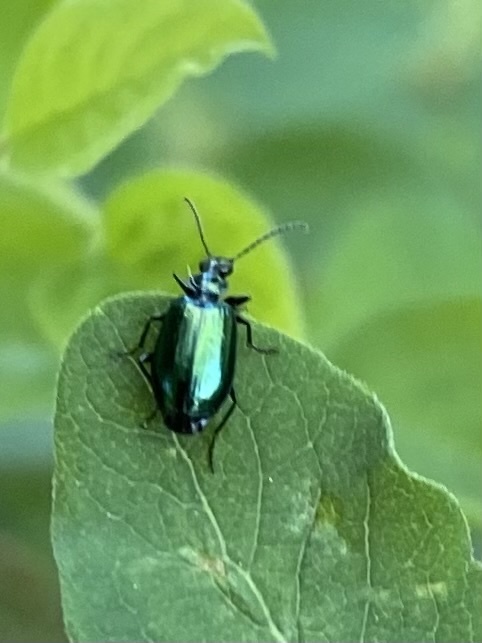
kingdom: Animalia
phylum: Arthropoda
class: Insecta
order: Coleoptera
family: Carabidae
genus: Lebia
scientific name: Lebia viridis
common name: Flower lebia beetle
